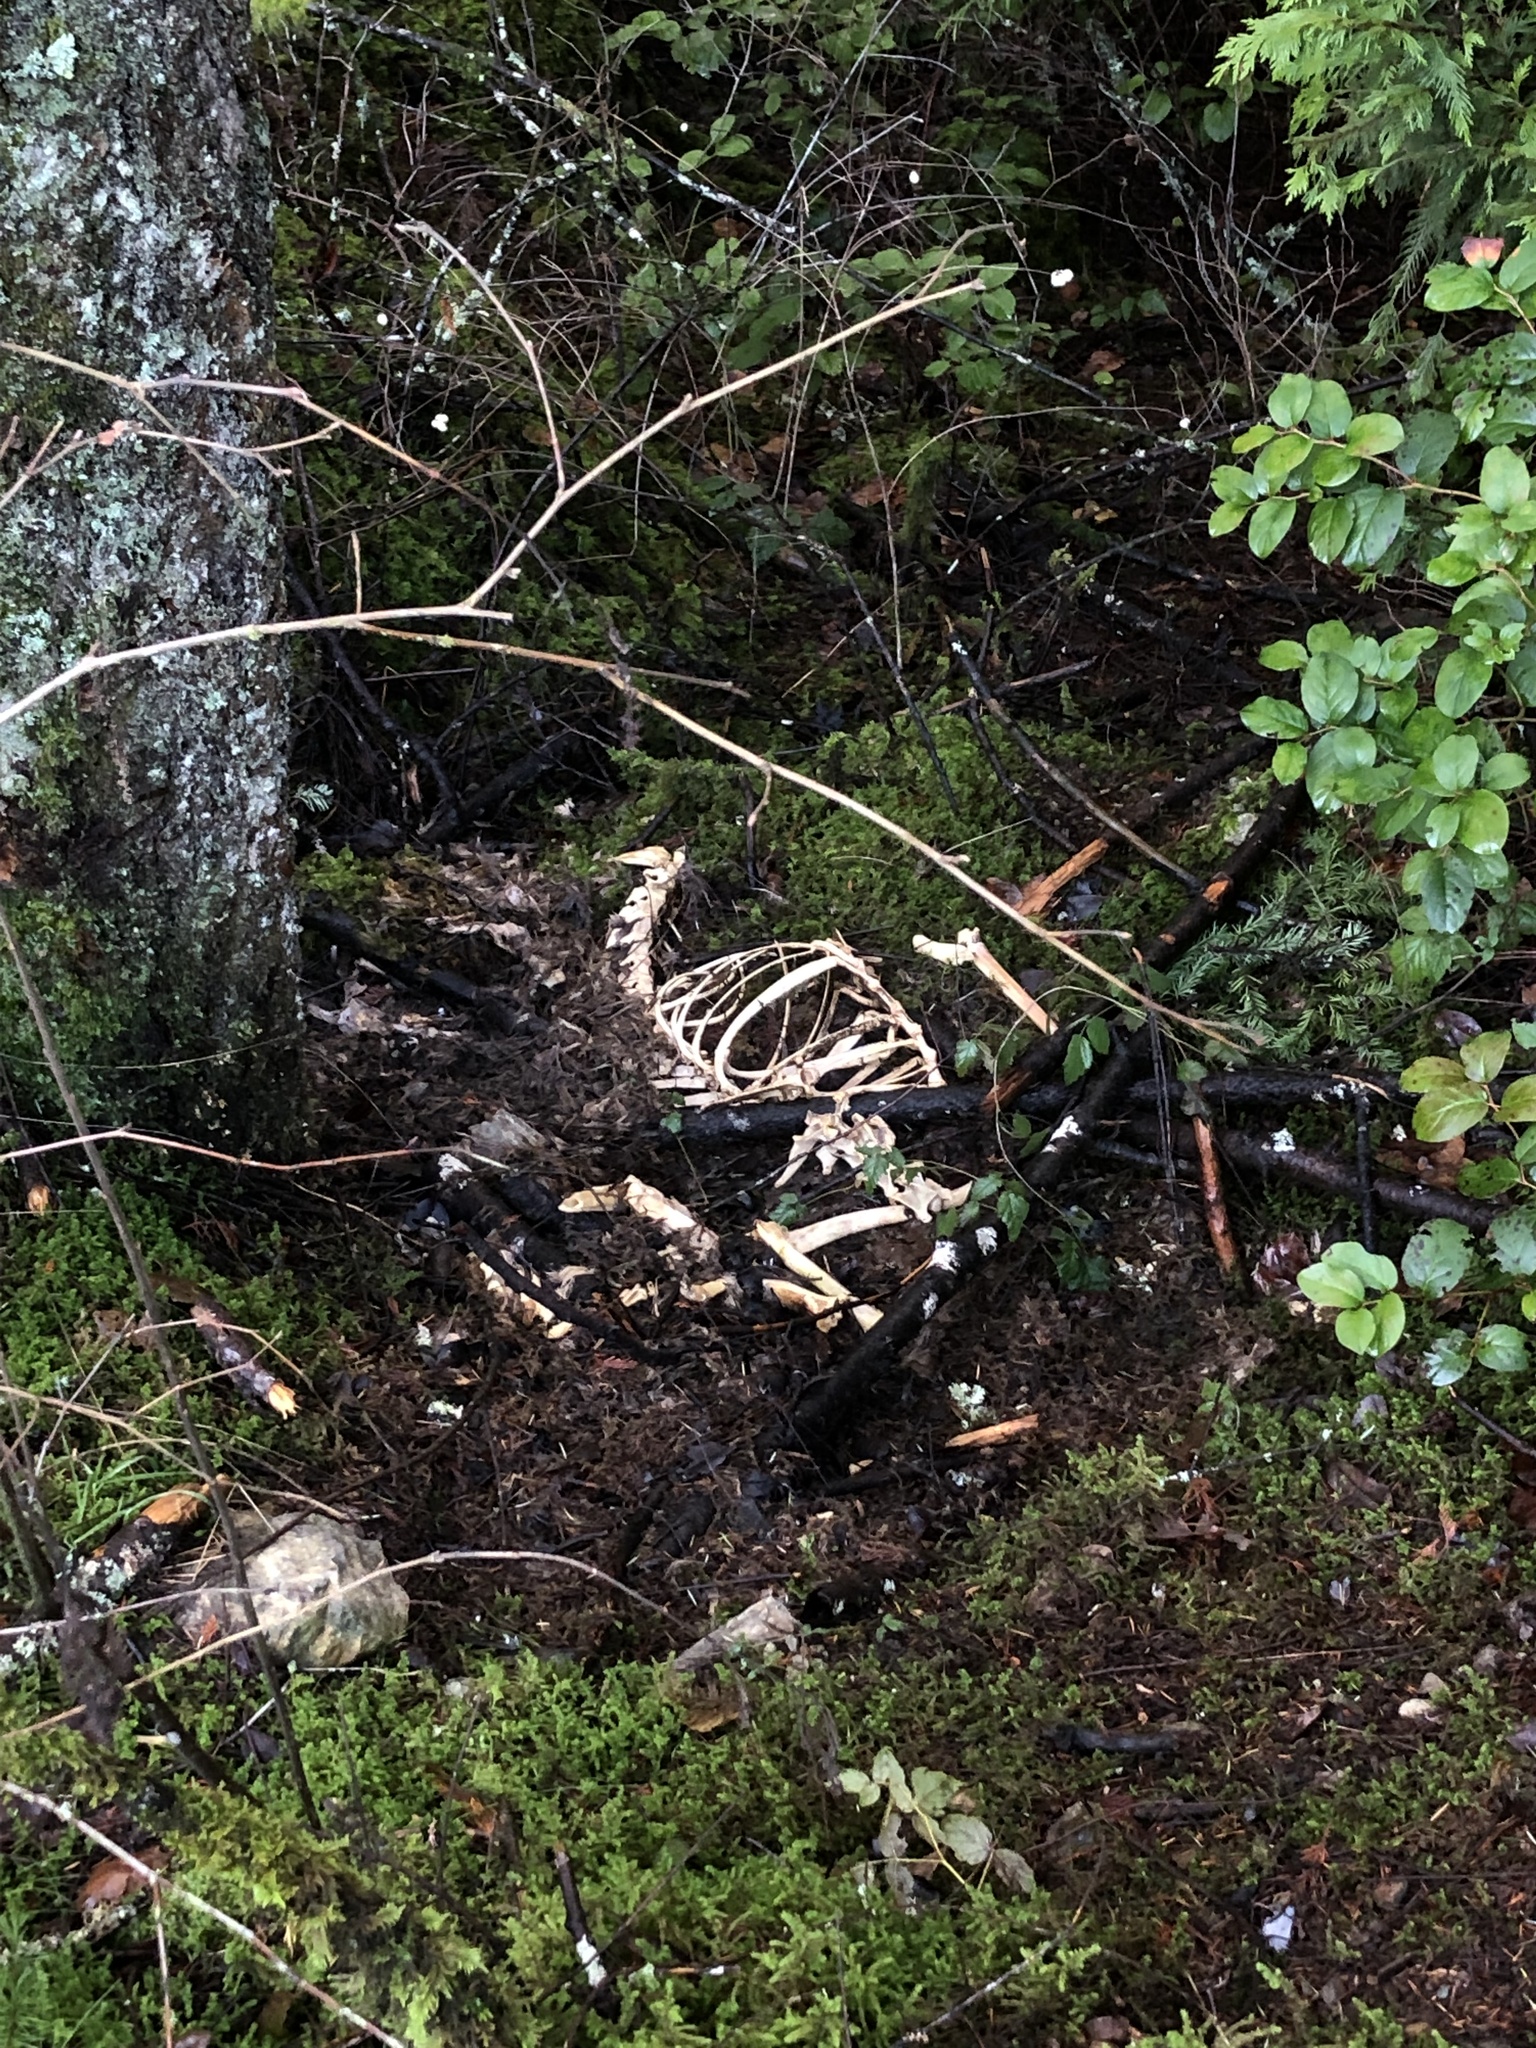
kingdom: Animalia
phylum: Chordata
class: Mammalia
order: Artiodactyla
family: Cervidae
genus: Odocoileus
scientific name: Odocoileus hemionus
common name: Mule deer
